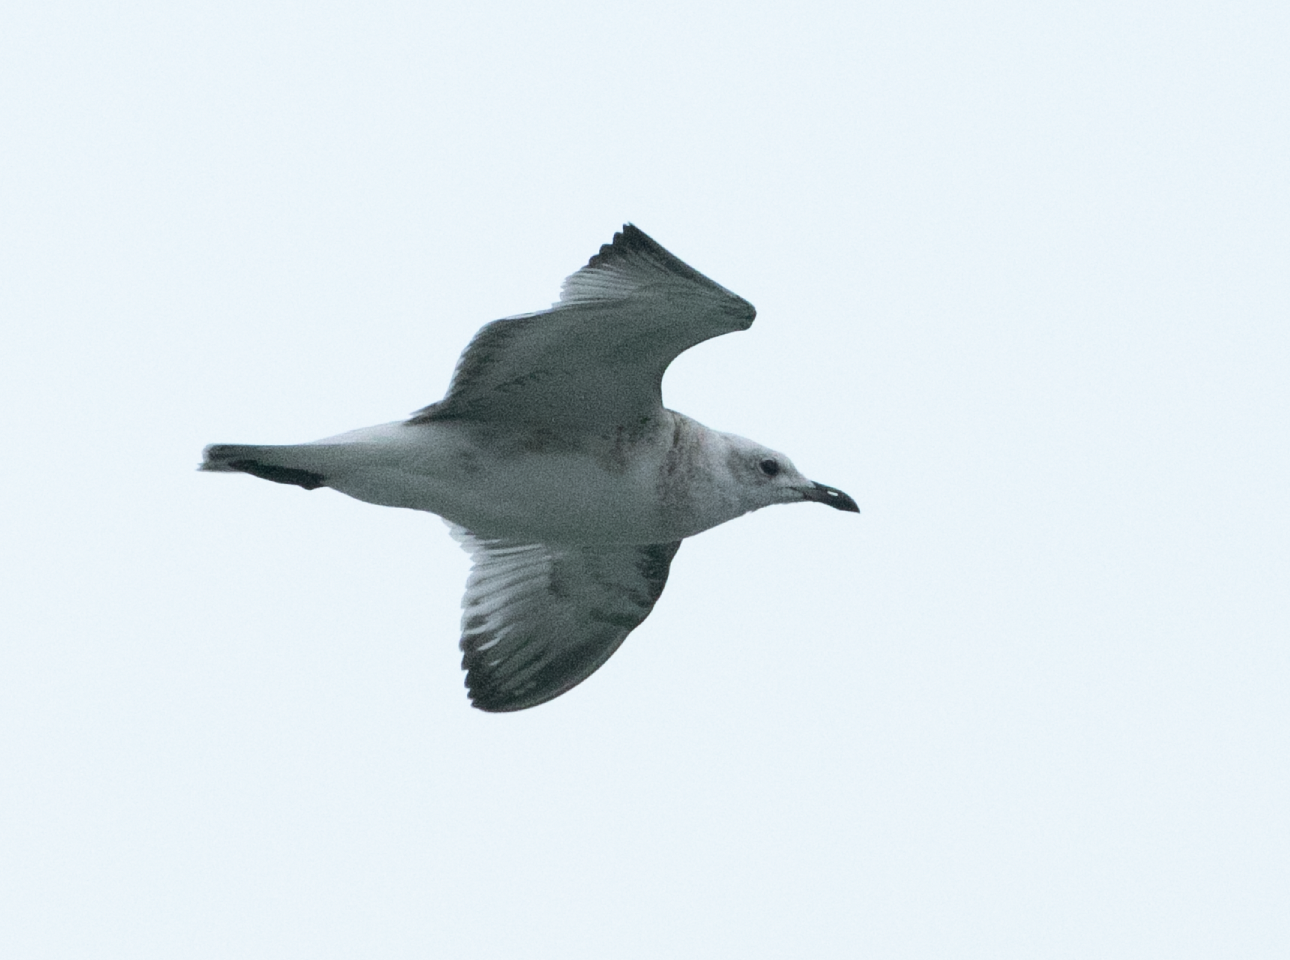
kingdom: Animalia
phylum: Chordata
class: Aves
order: Charadriiformes
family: Laridae
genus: Ichthyaetus
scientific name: Ichthyaetus melanocephalus
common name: Mediterranean gull
